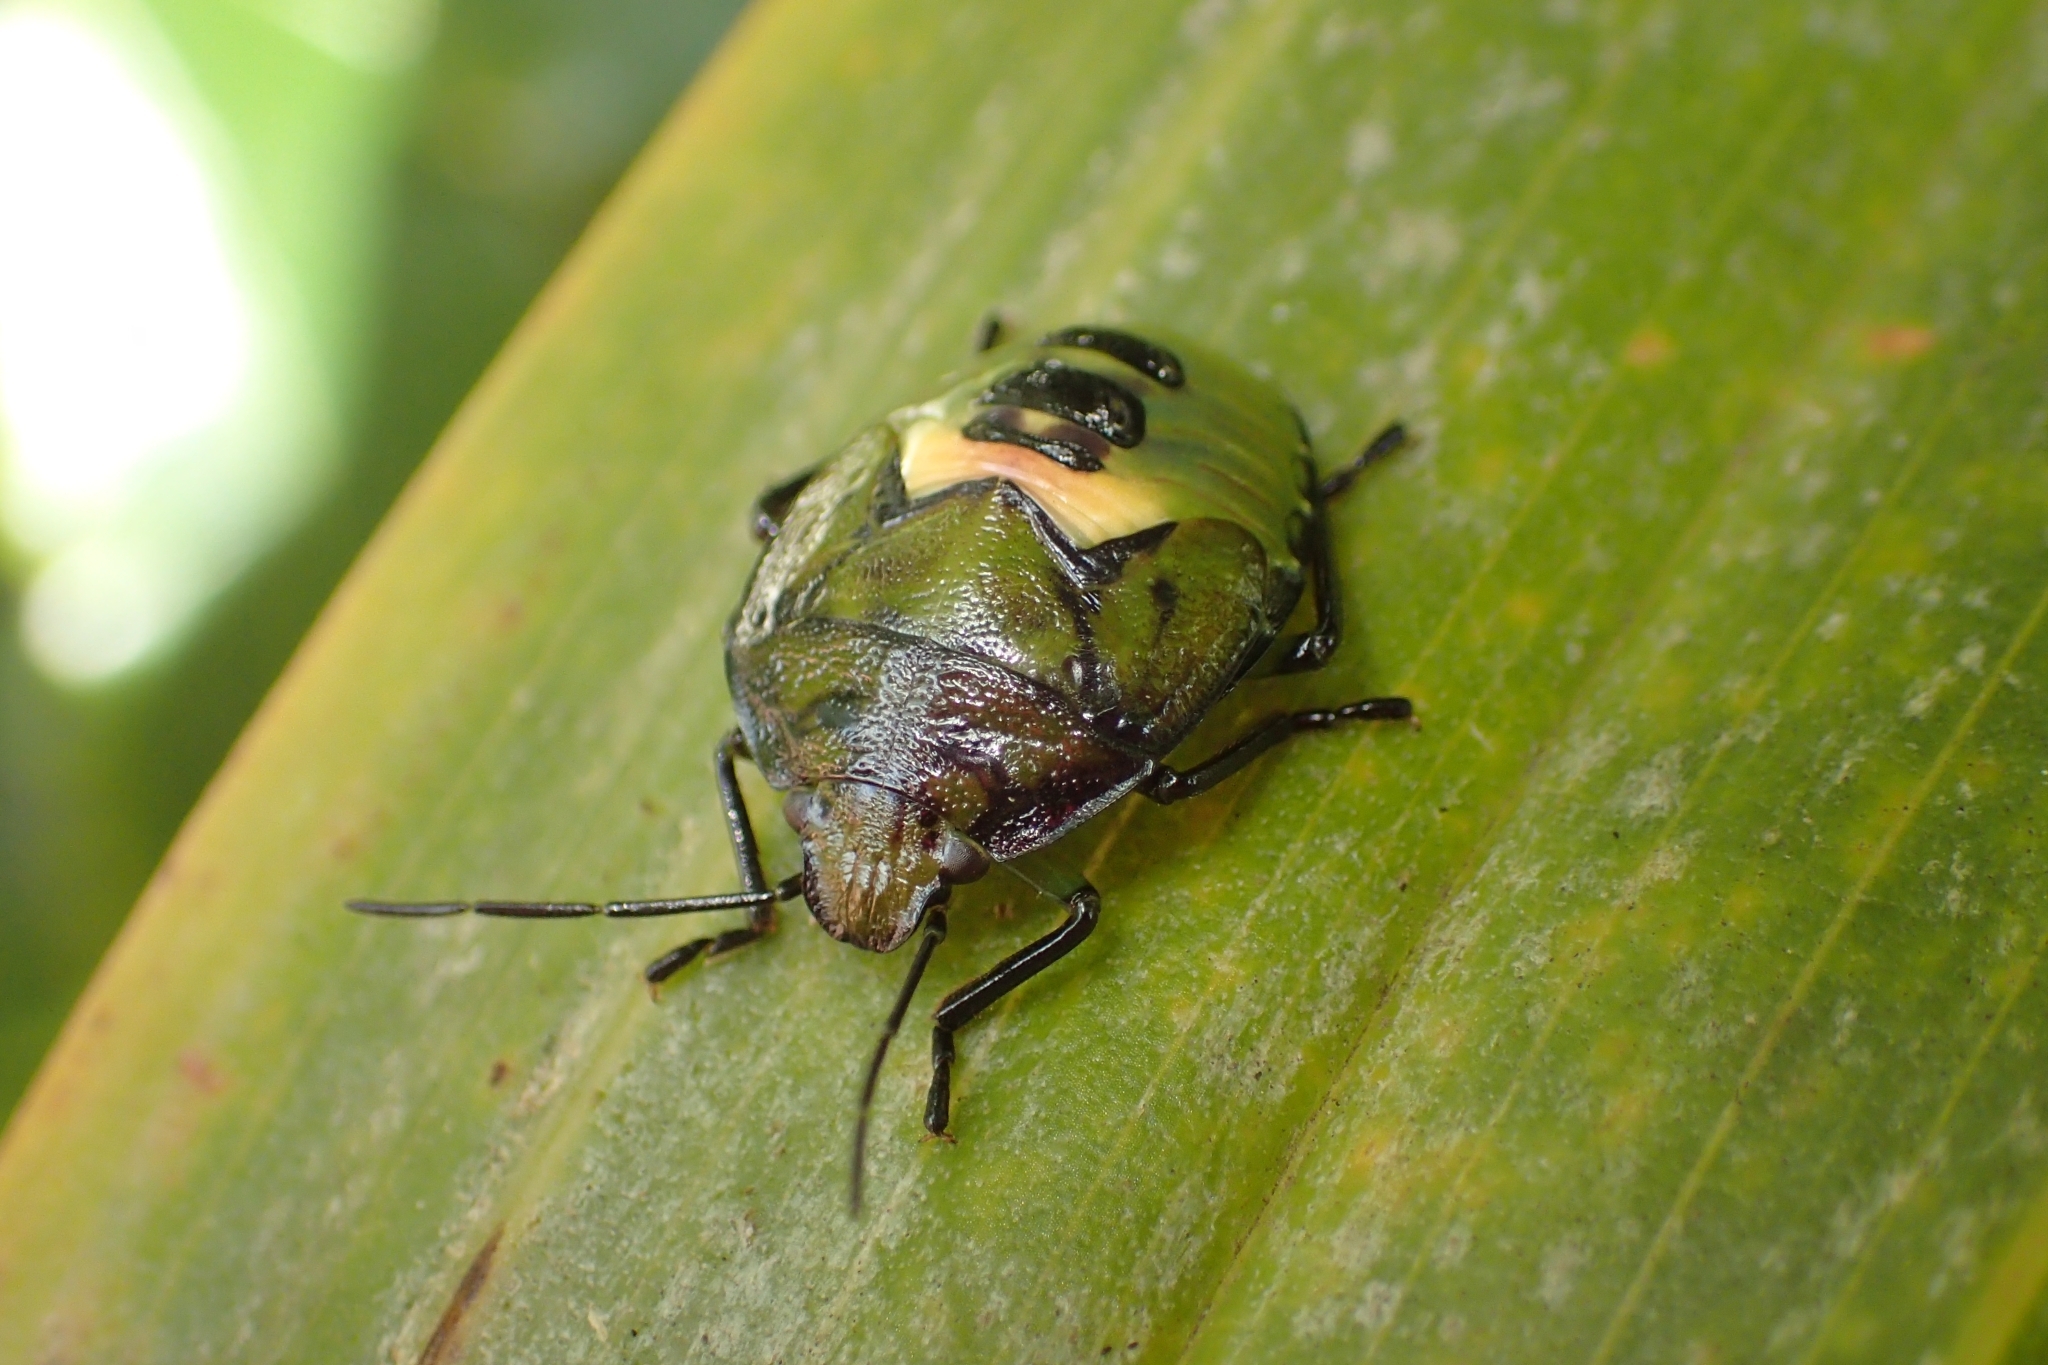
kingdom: Animalia
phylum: Arthropoda
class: Insecta
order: Hemiptera
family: Pentatomidae
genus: Glaucias
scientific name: Glaucias amyota
